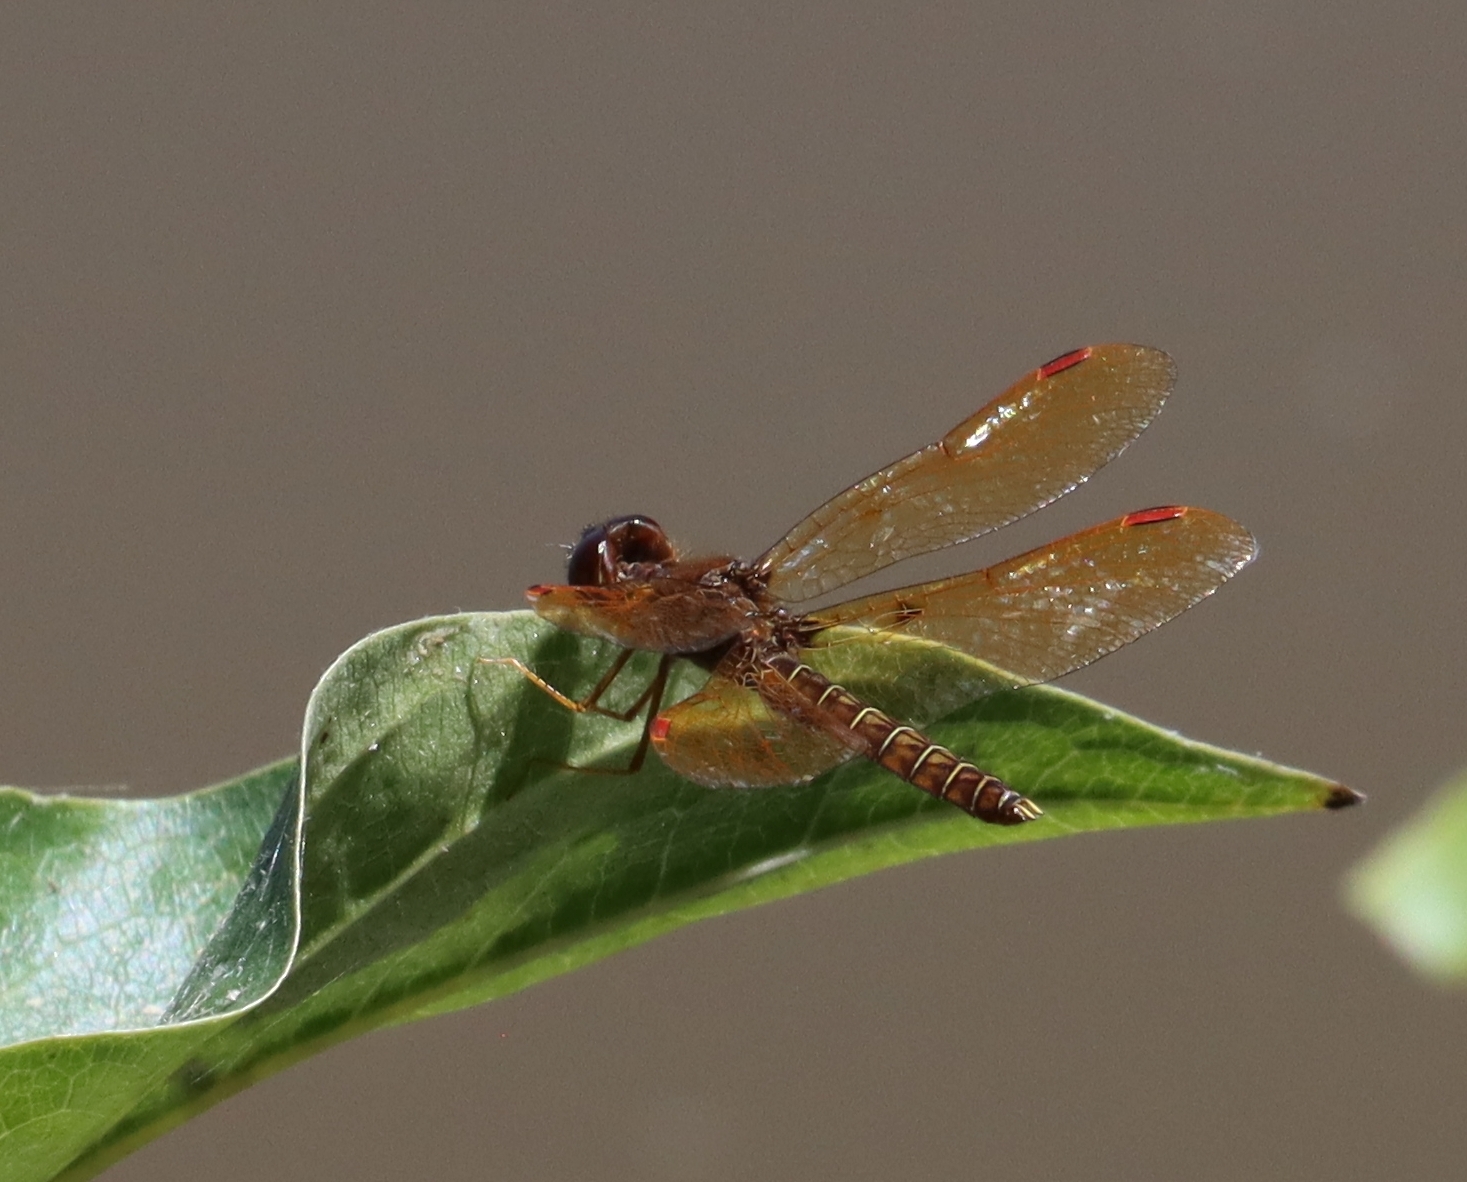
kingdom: Animalia
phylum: Arthropoda
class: Insecta
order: Odonata
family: Libellulidae
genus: Perithemis
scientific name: Perithemis tenera
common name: Eastern amberwing
